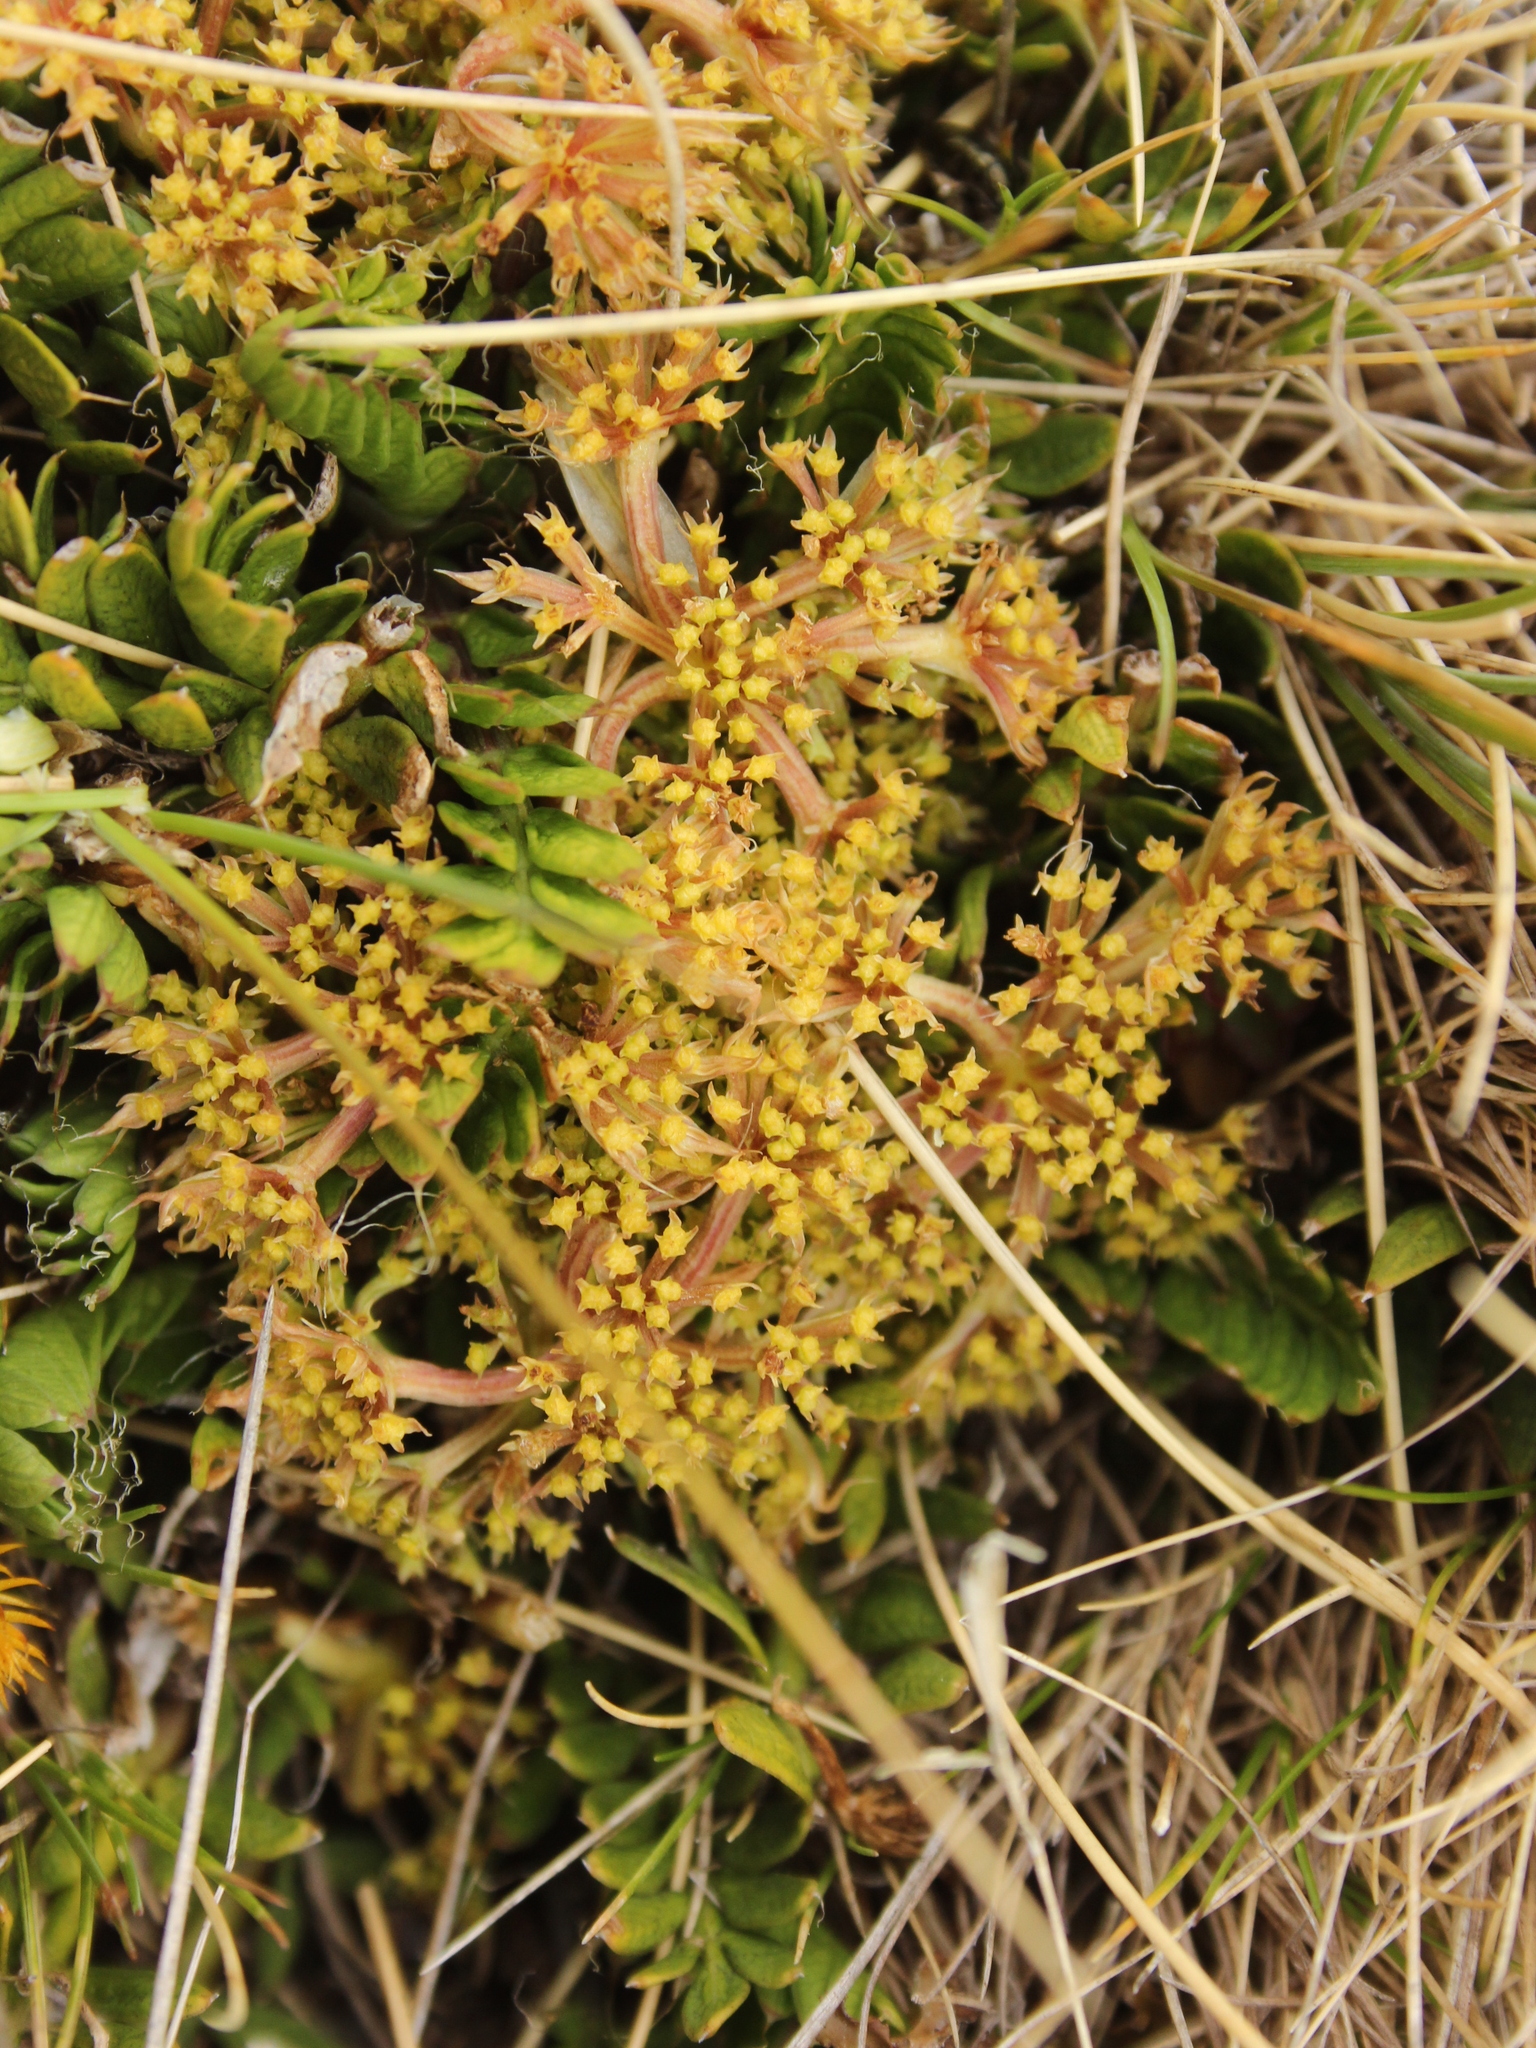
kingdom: Plantae
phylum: Tracheophyta
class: Magnoliopsida
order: Apiales
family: Apiaceae
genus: Anisotome
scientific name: Anisotome flexuosa
